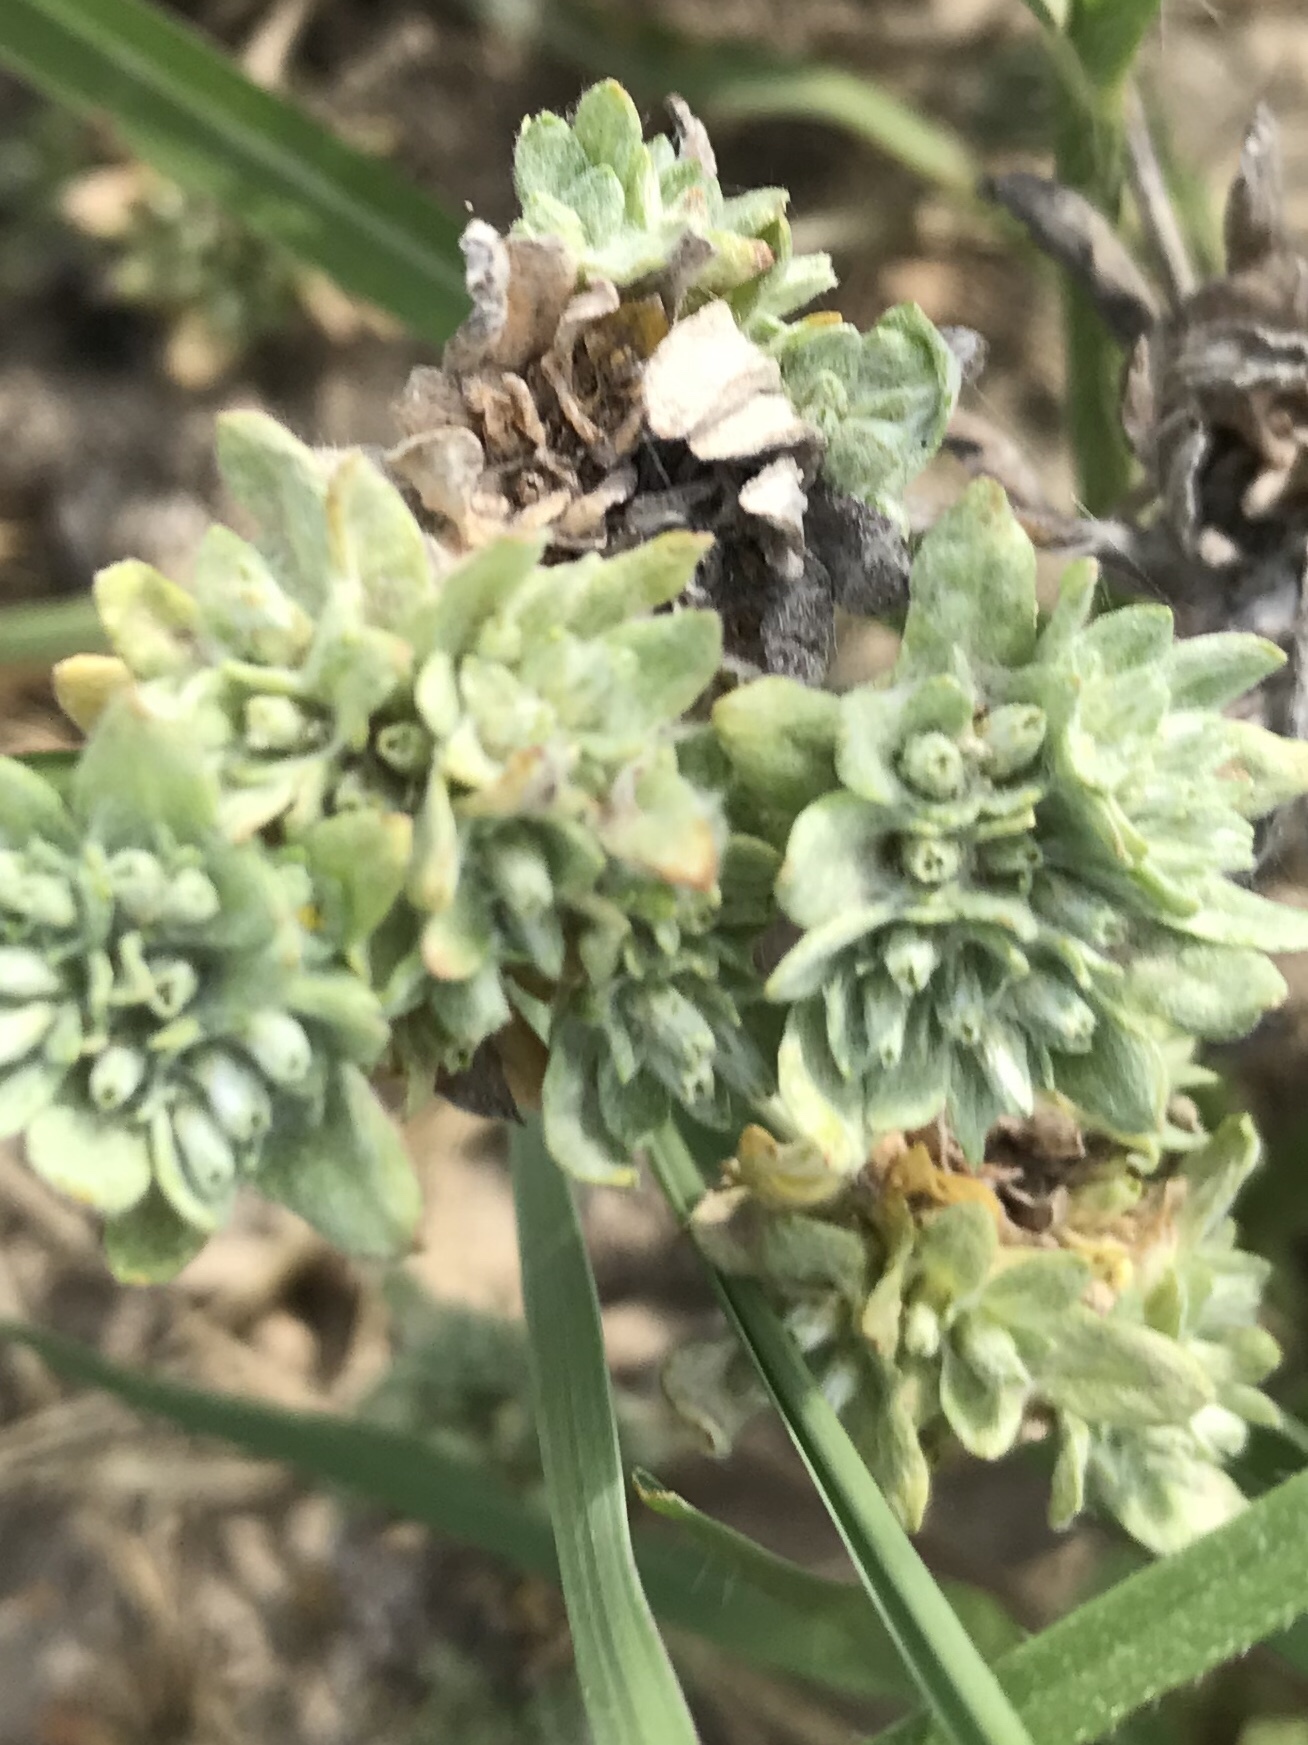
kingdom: Plantae
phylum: Tracheophyta
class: Magnoliopsida
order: Asterales
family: Asteraceae
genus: Diaperia
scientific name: Diaperia prolifera
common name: Big-head rabbit-tobacco
